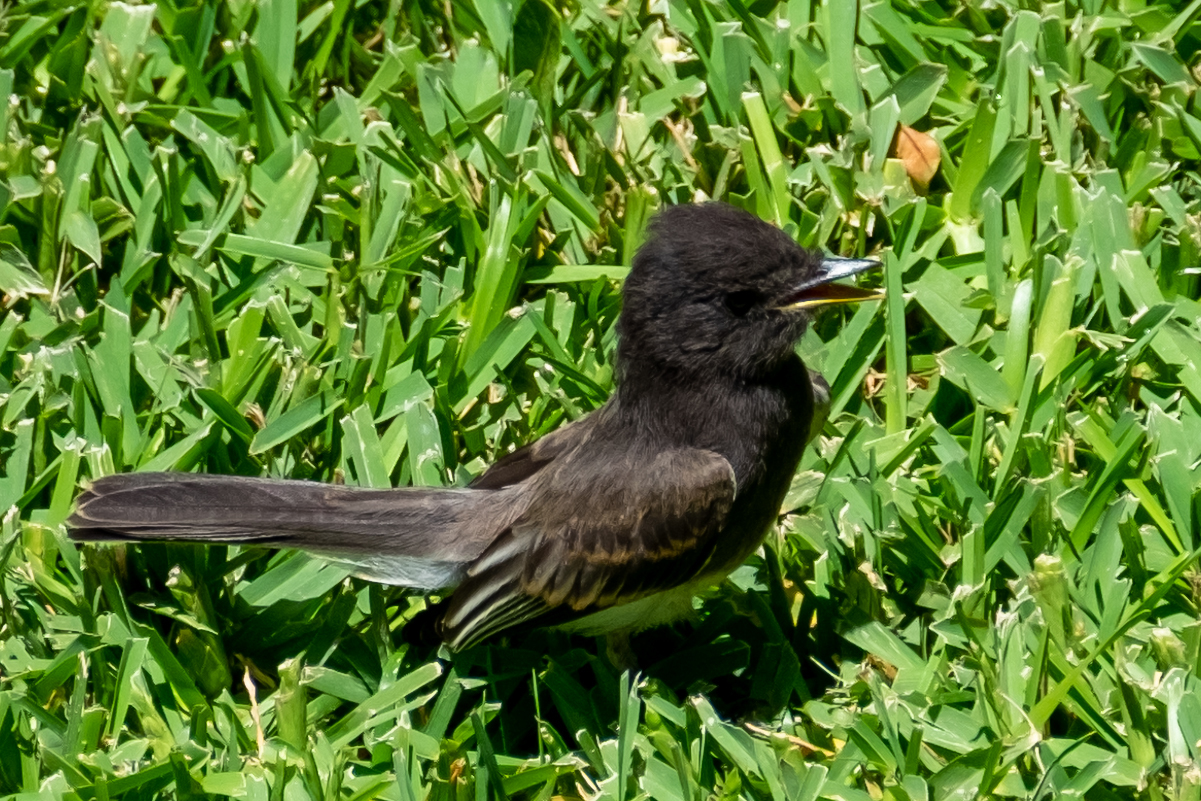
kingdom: Animalia
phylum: Chordata
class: Aves
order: Passeriformes
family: Tyrannidae
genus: Sayornis
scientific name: Sayornis nigricans
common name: Black phoebe
